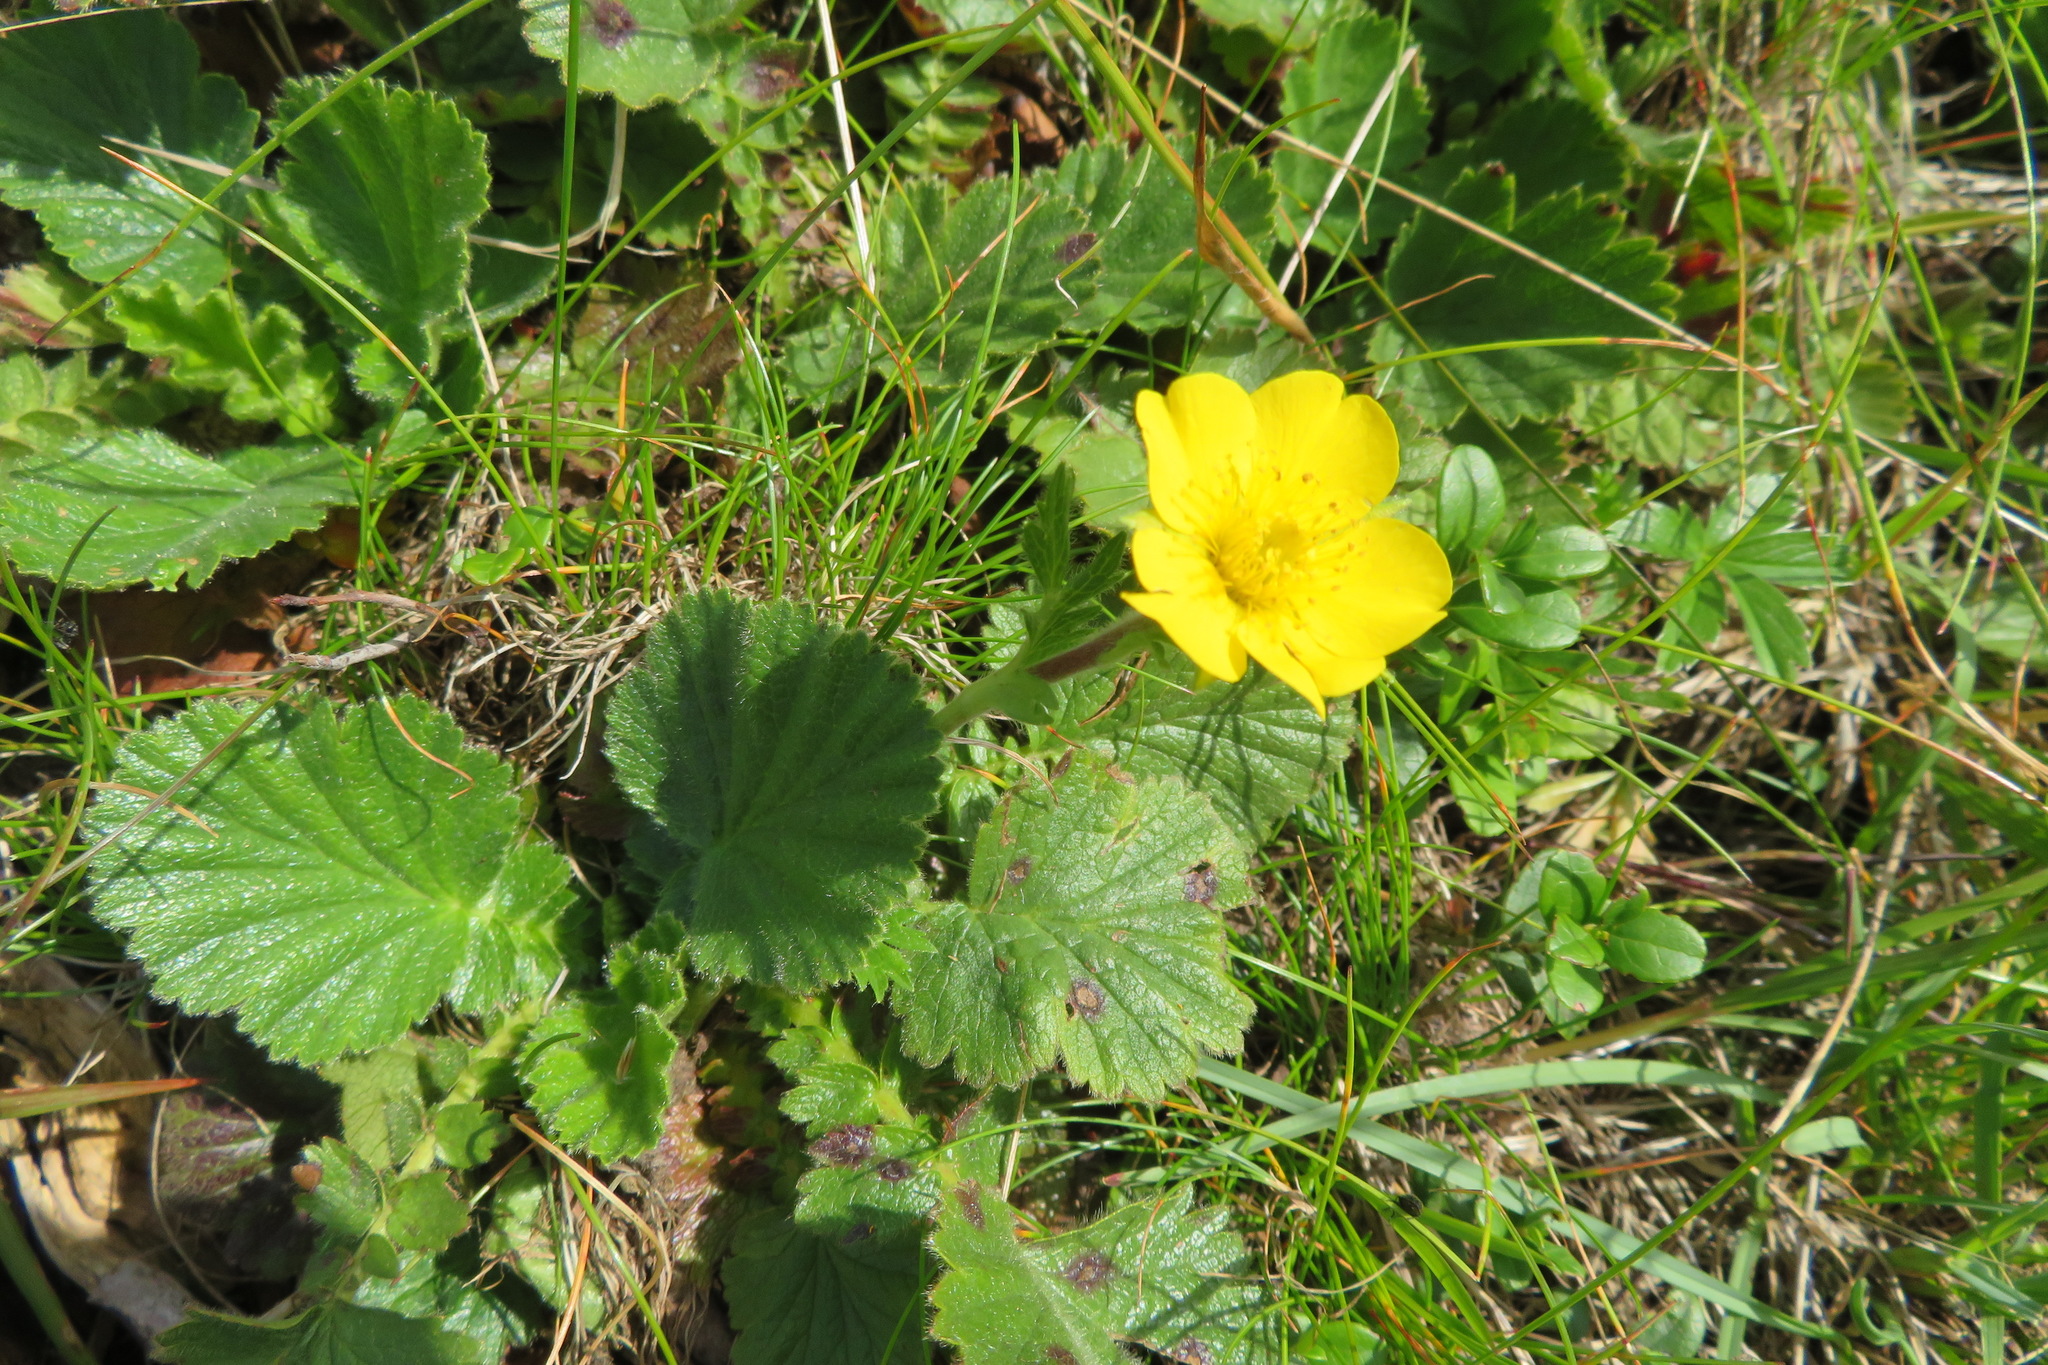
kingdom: Plantae
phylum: Tracheophyta
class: Magnoliopsida
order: Rosales
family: Rosaceae
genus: Geum
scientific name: Geum montanum
